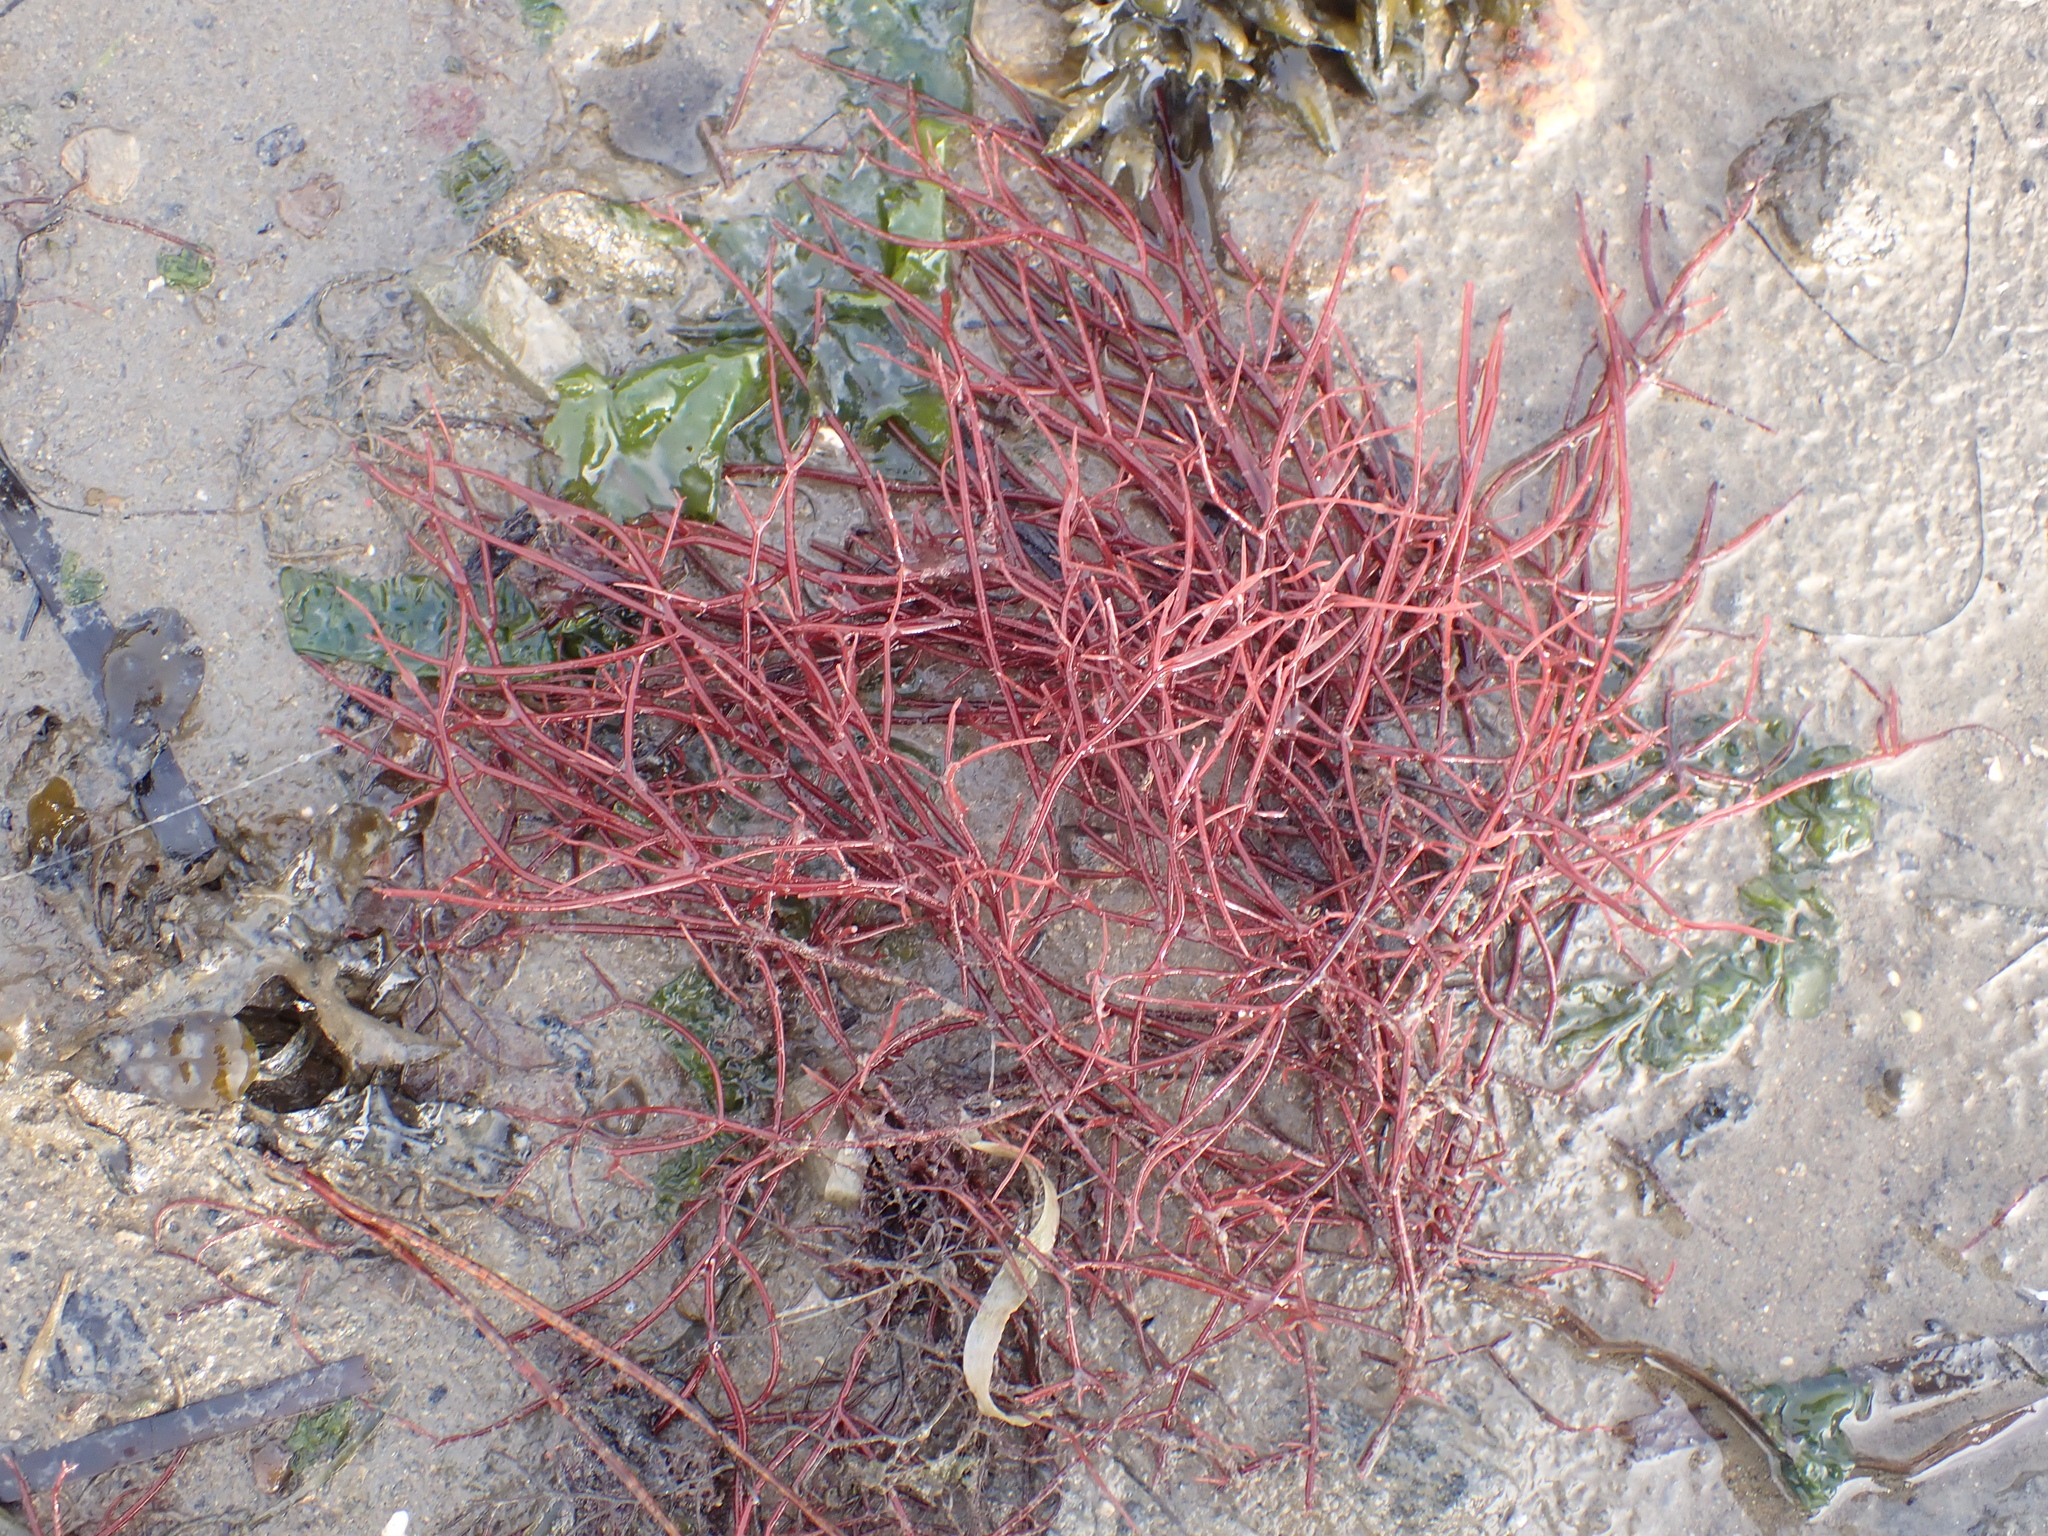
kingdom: Plantae
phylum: Rhodophyta
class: Florideophyceae
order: Gigartinales
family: Solieriaceae
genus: Solieria
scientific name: Solieria chordalis
